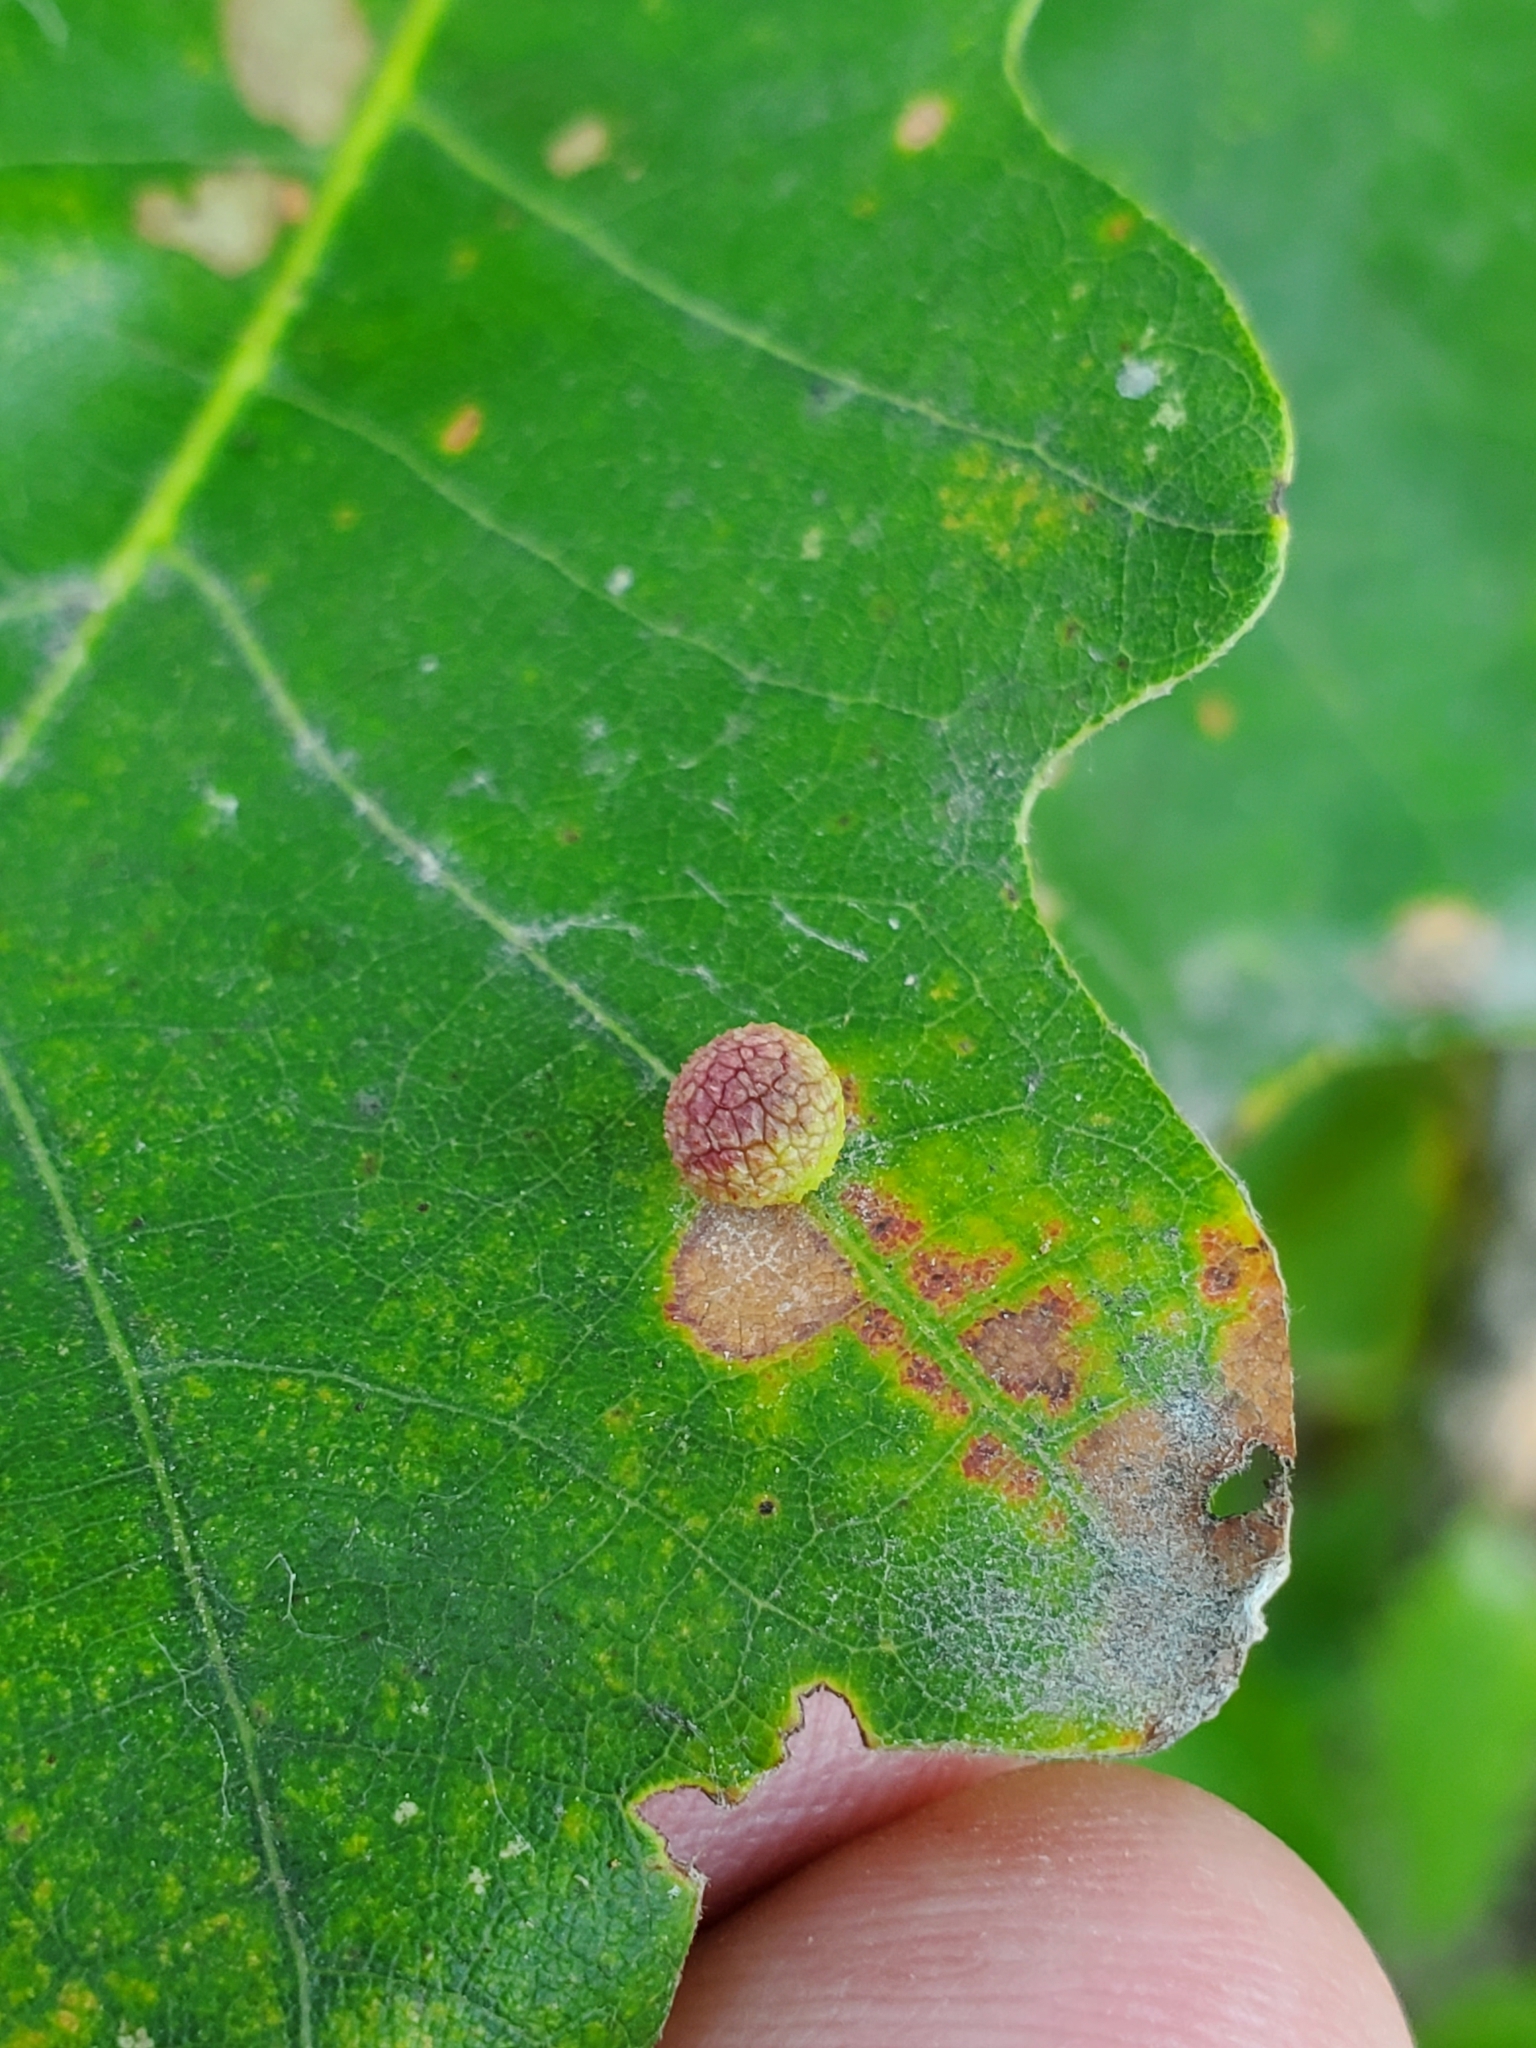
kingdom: Animalia
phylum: Arthropoda
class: Insecta
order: Hymenoptera
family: Cynipidae
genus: Acraspis
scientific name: Acraspis quercushirta
